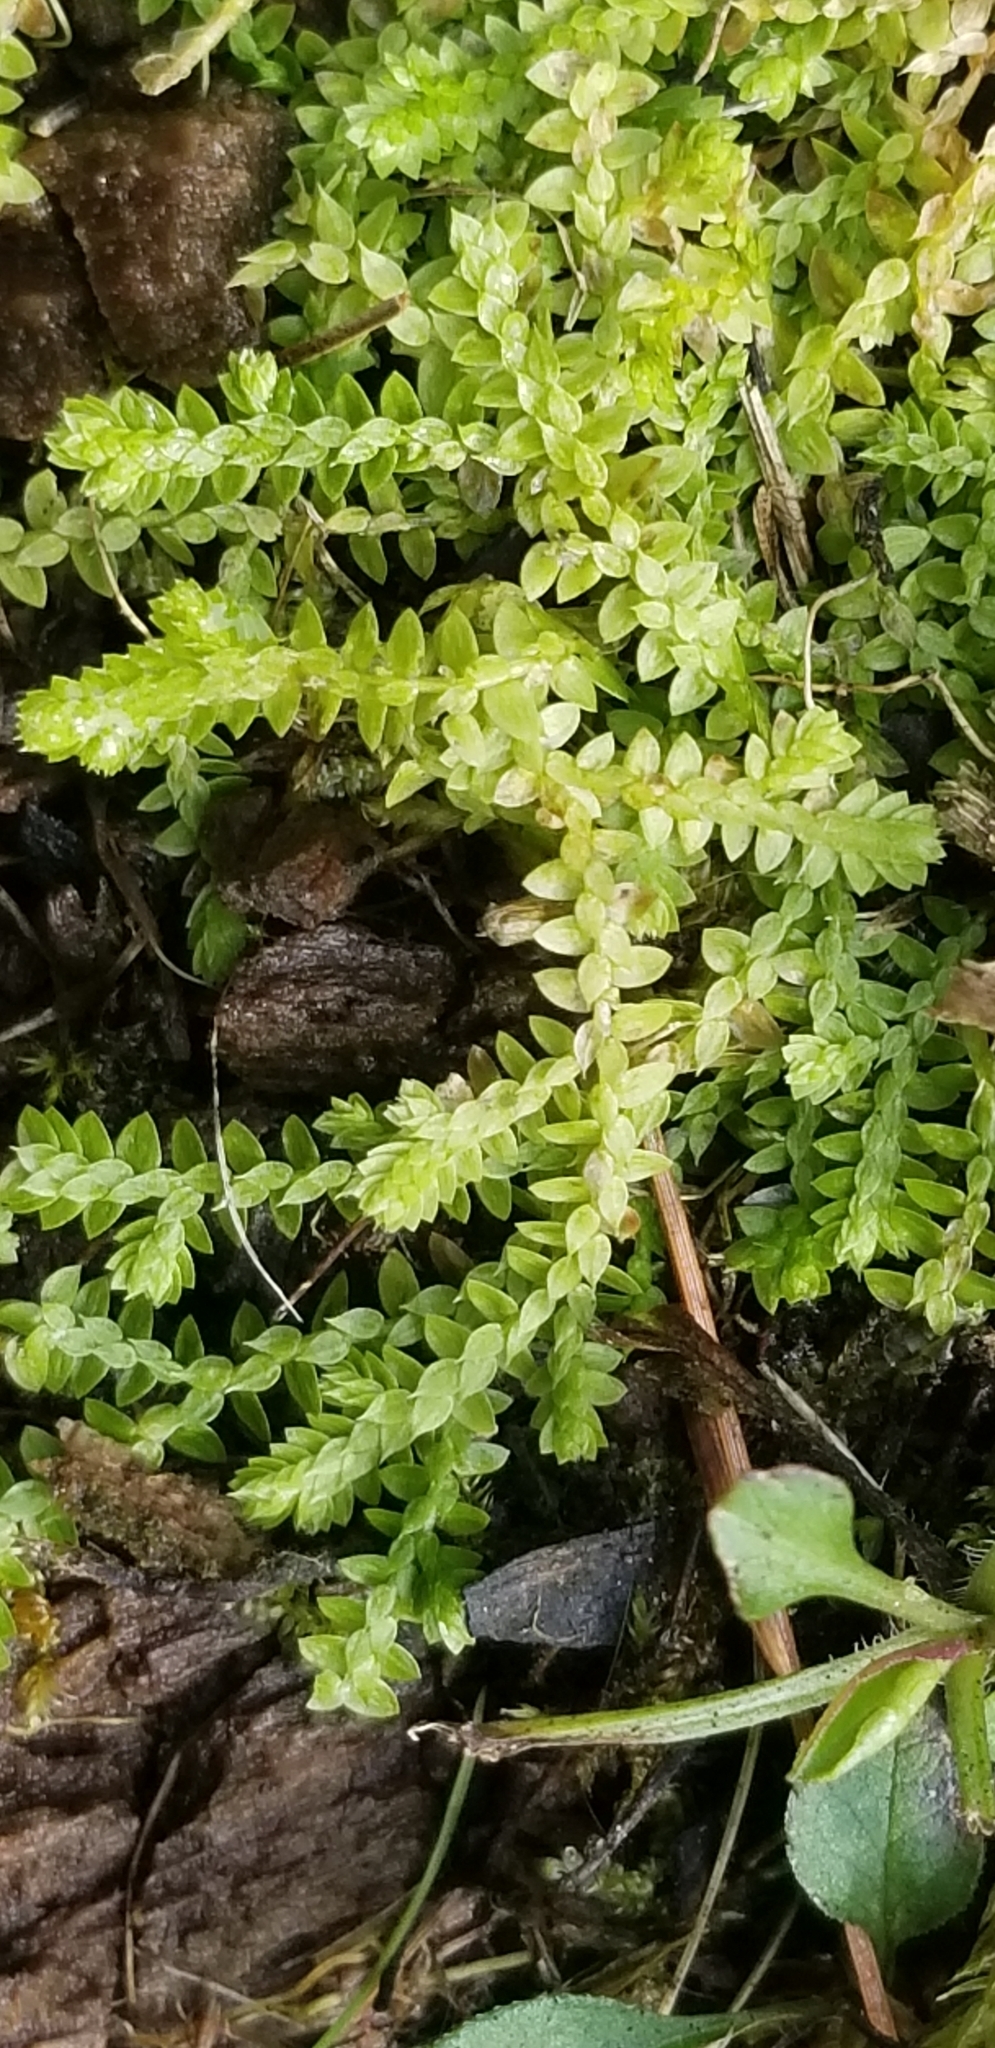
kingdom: Plantae
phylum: Tracheophyta
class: Lycopodiopsida
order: Selaginellales
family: Selaginellaceae
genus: Selaginella
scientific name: Selaginella apoda
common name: Creeping spikemoss
